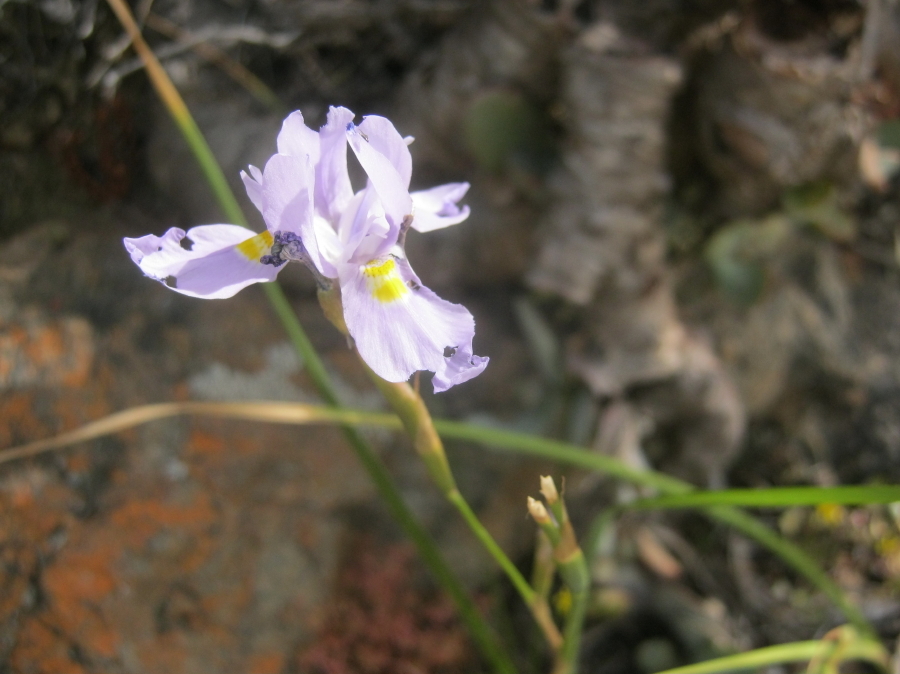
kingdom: Plantae
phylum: Tracheophyta
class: Liliopsida
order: Asparagales
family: Iridaceae
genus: Moraea
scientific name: Moraea polystachya
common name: Blue-tulip
